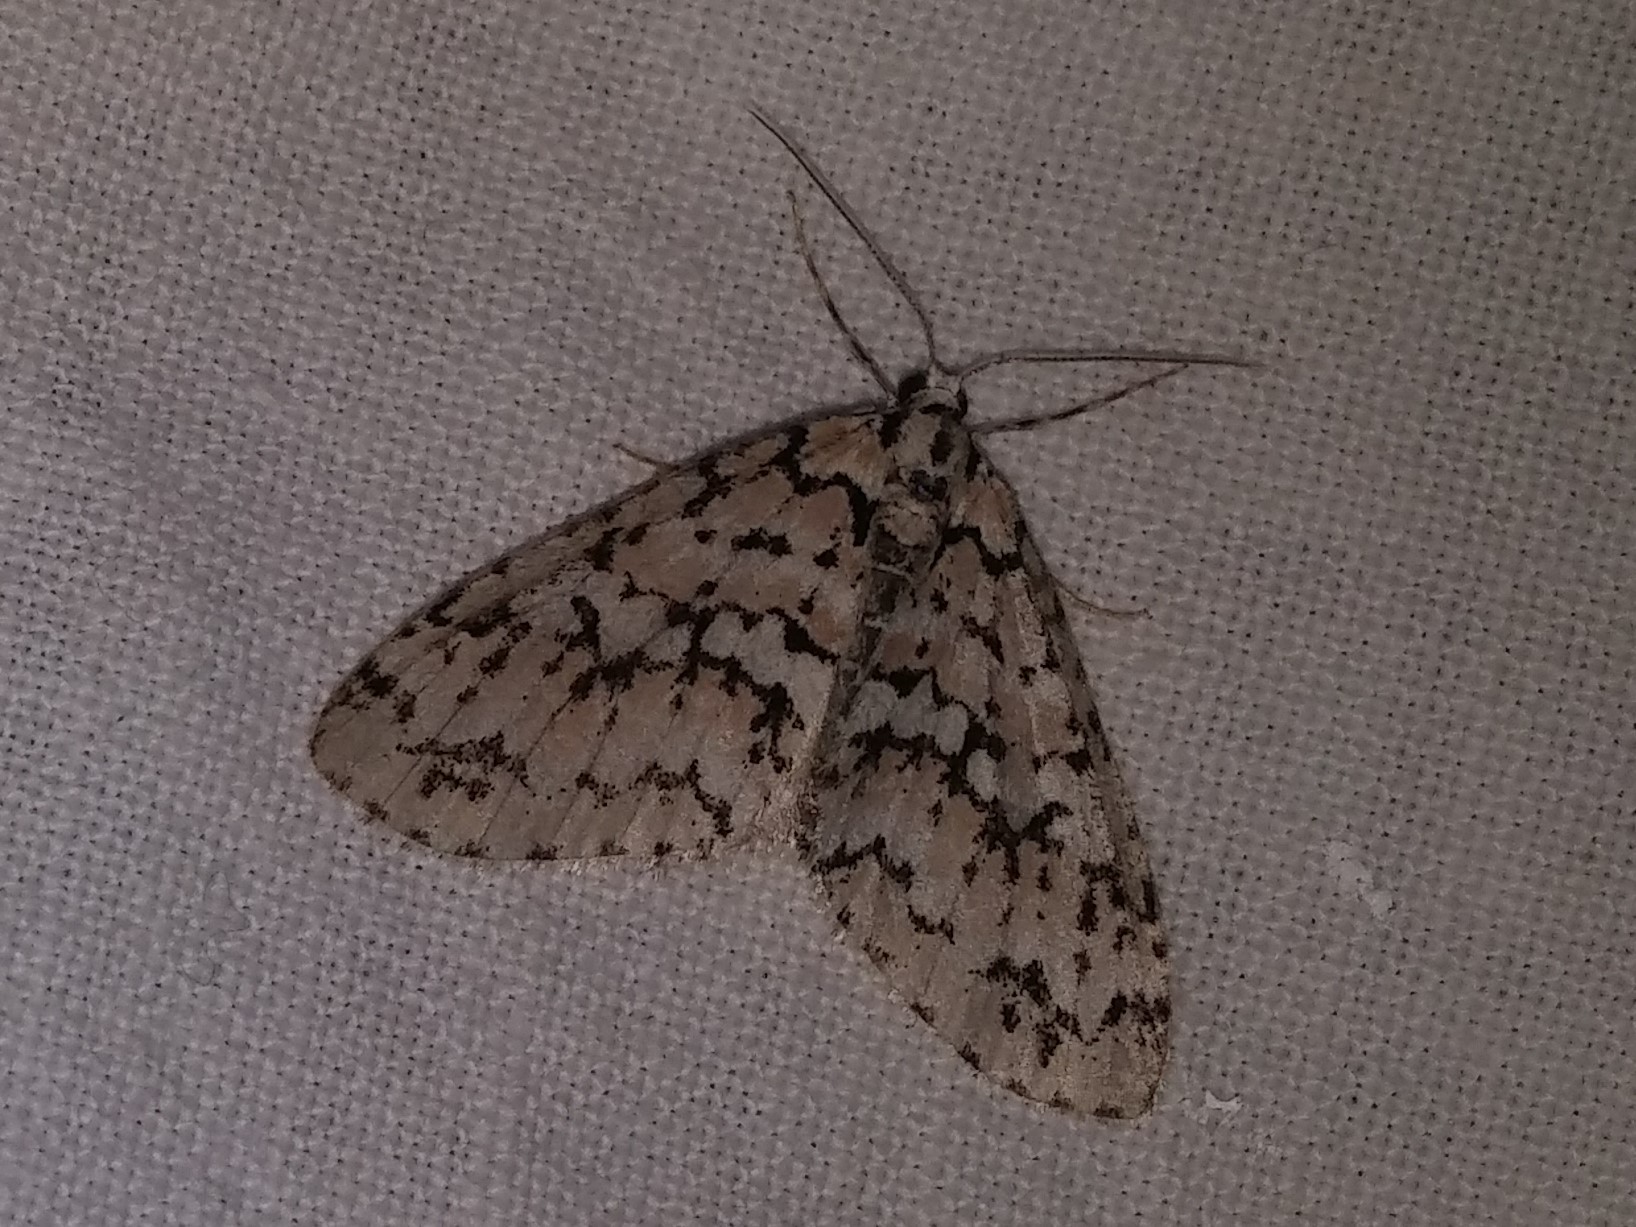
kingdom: Animalia
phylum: Arthropoda
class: Insecta
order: Lepidoptera
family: Geometridae
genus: Cladara
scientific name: Cladara atroliturata
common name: Scribbler
